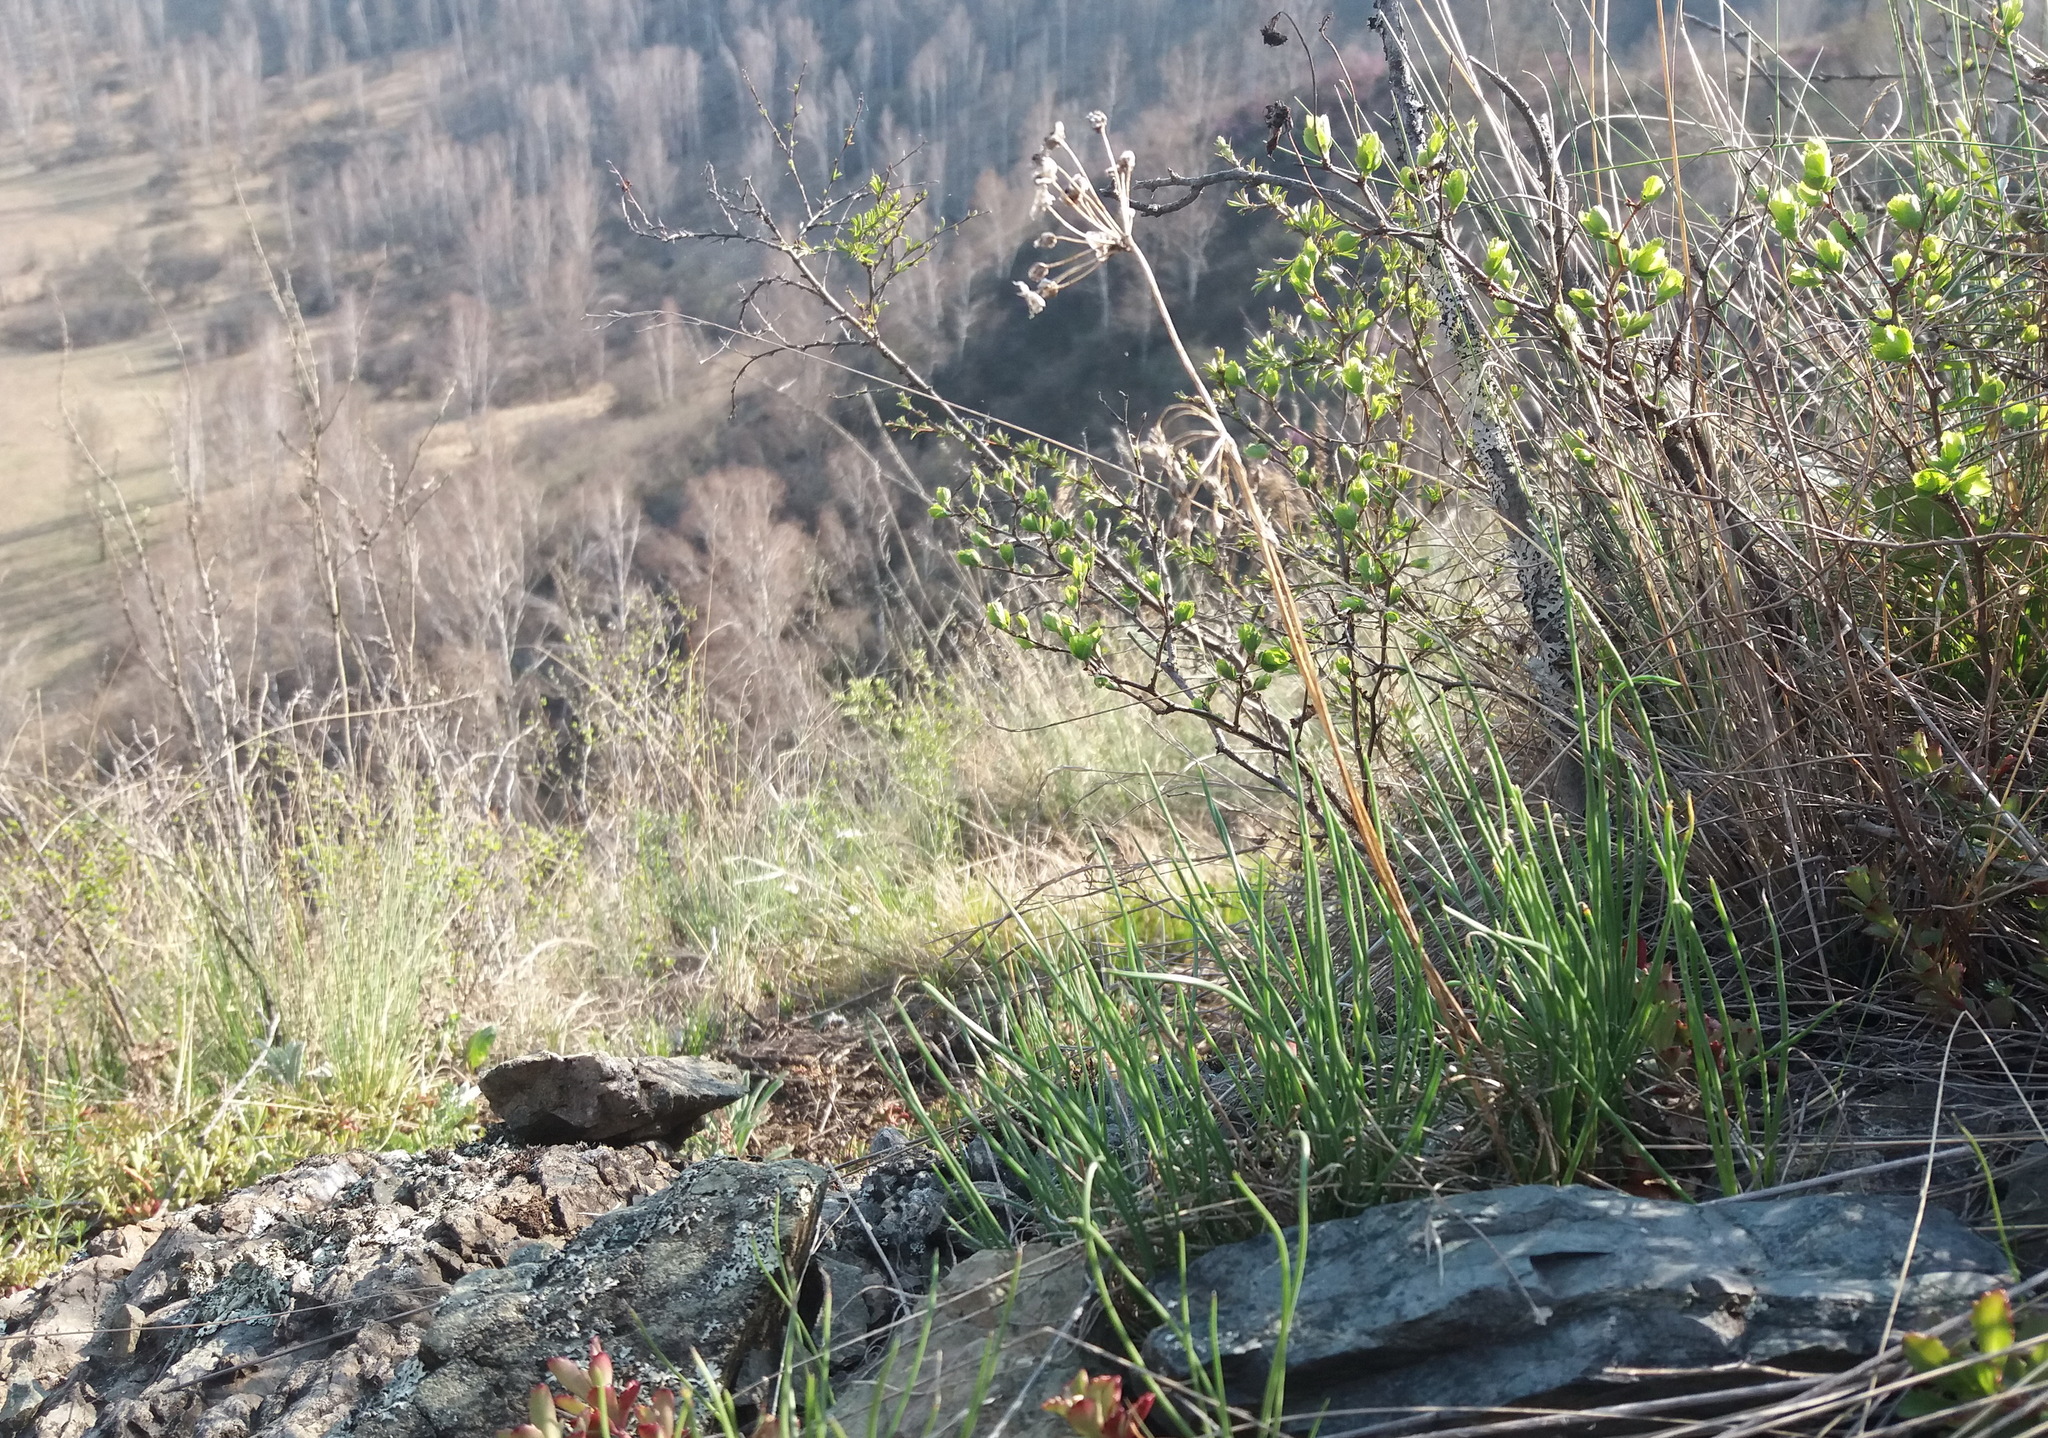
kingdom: Plantae
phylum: Tracheophyta
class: Liliopsida
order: Asparagales
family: Amaryllidaceae
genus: Allium
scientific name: Allium rubens
